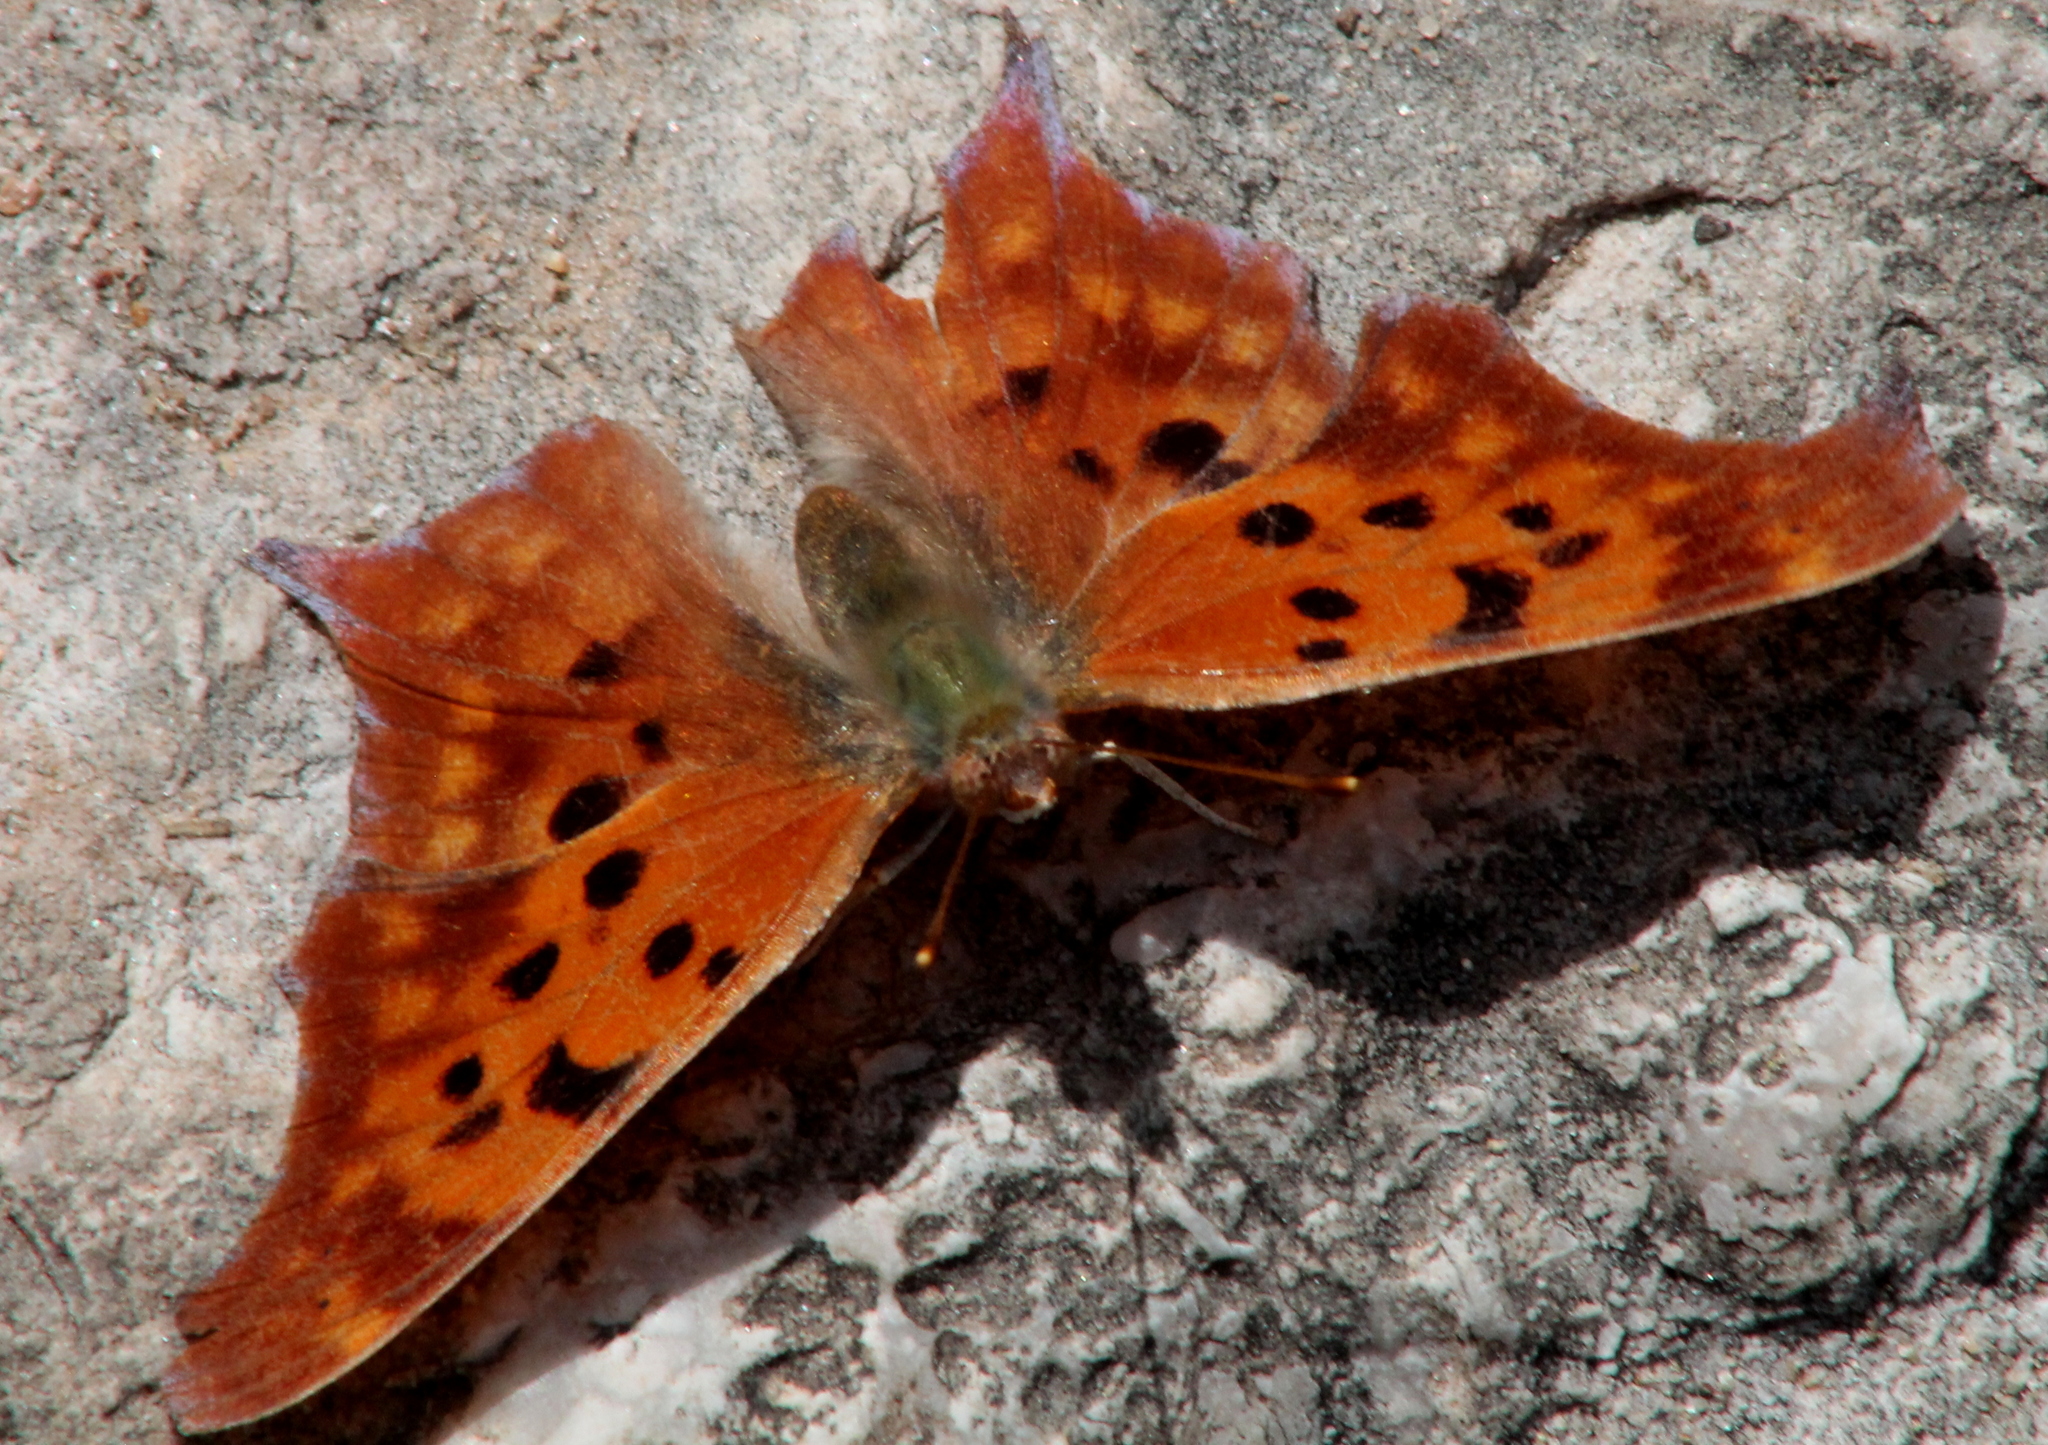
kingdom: Animalia
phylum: Arthropoda
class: Insecta
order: Lepidoptera
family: Nymphalidae
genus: Polygonia
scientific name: Polygonia interrogationis
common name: Question mark
